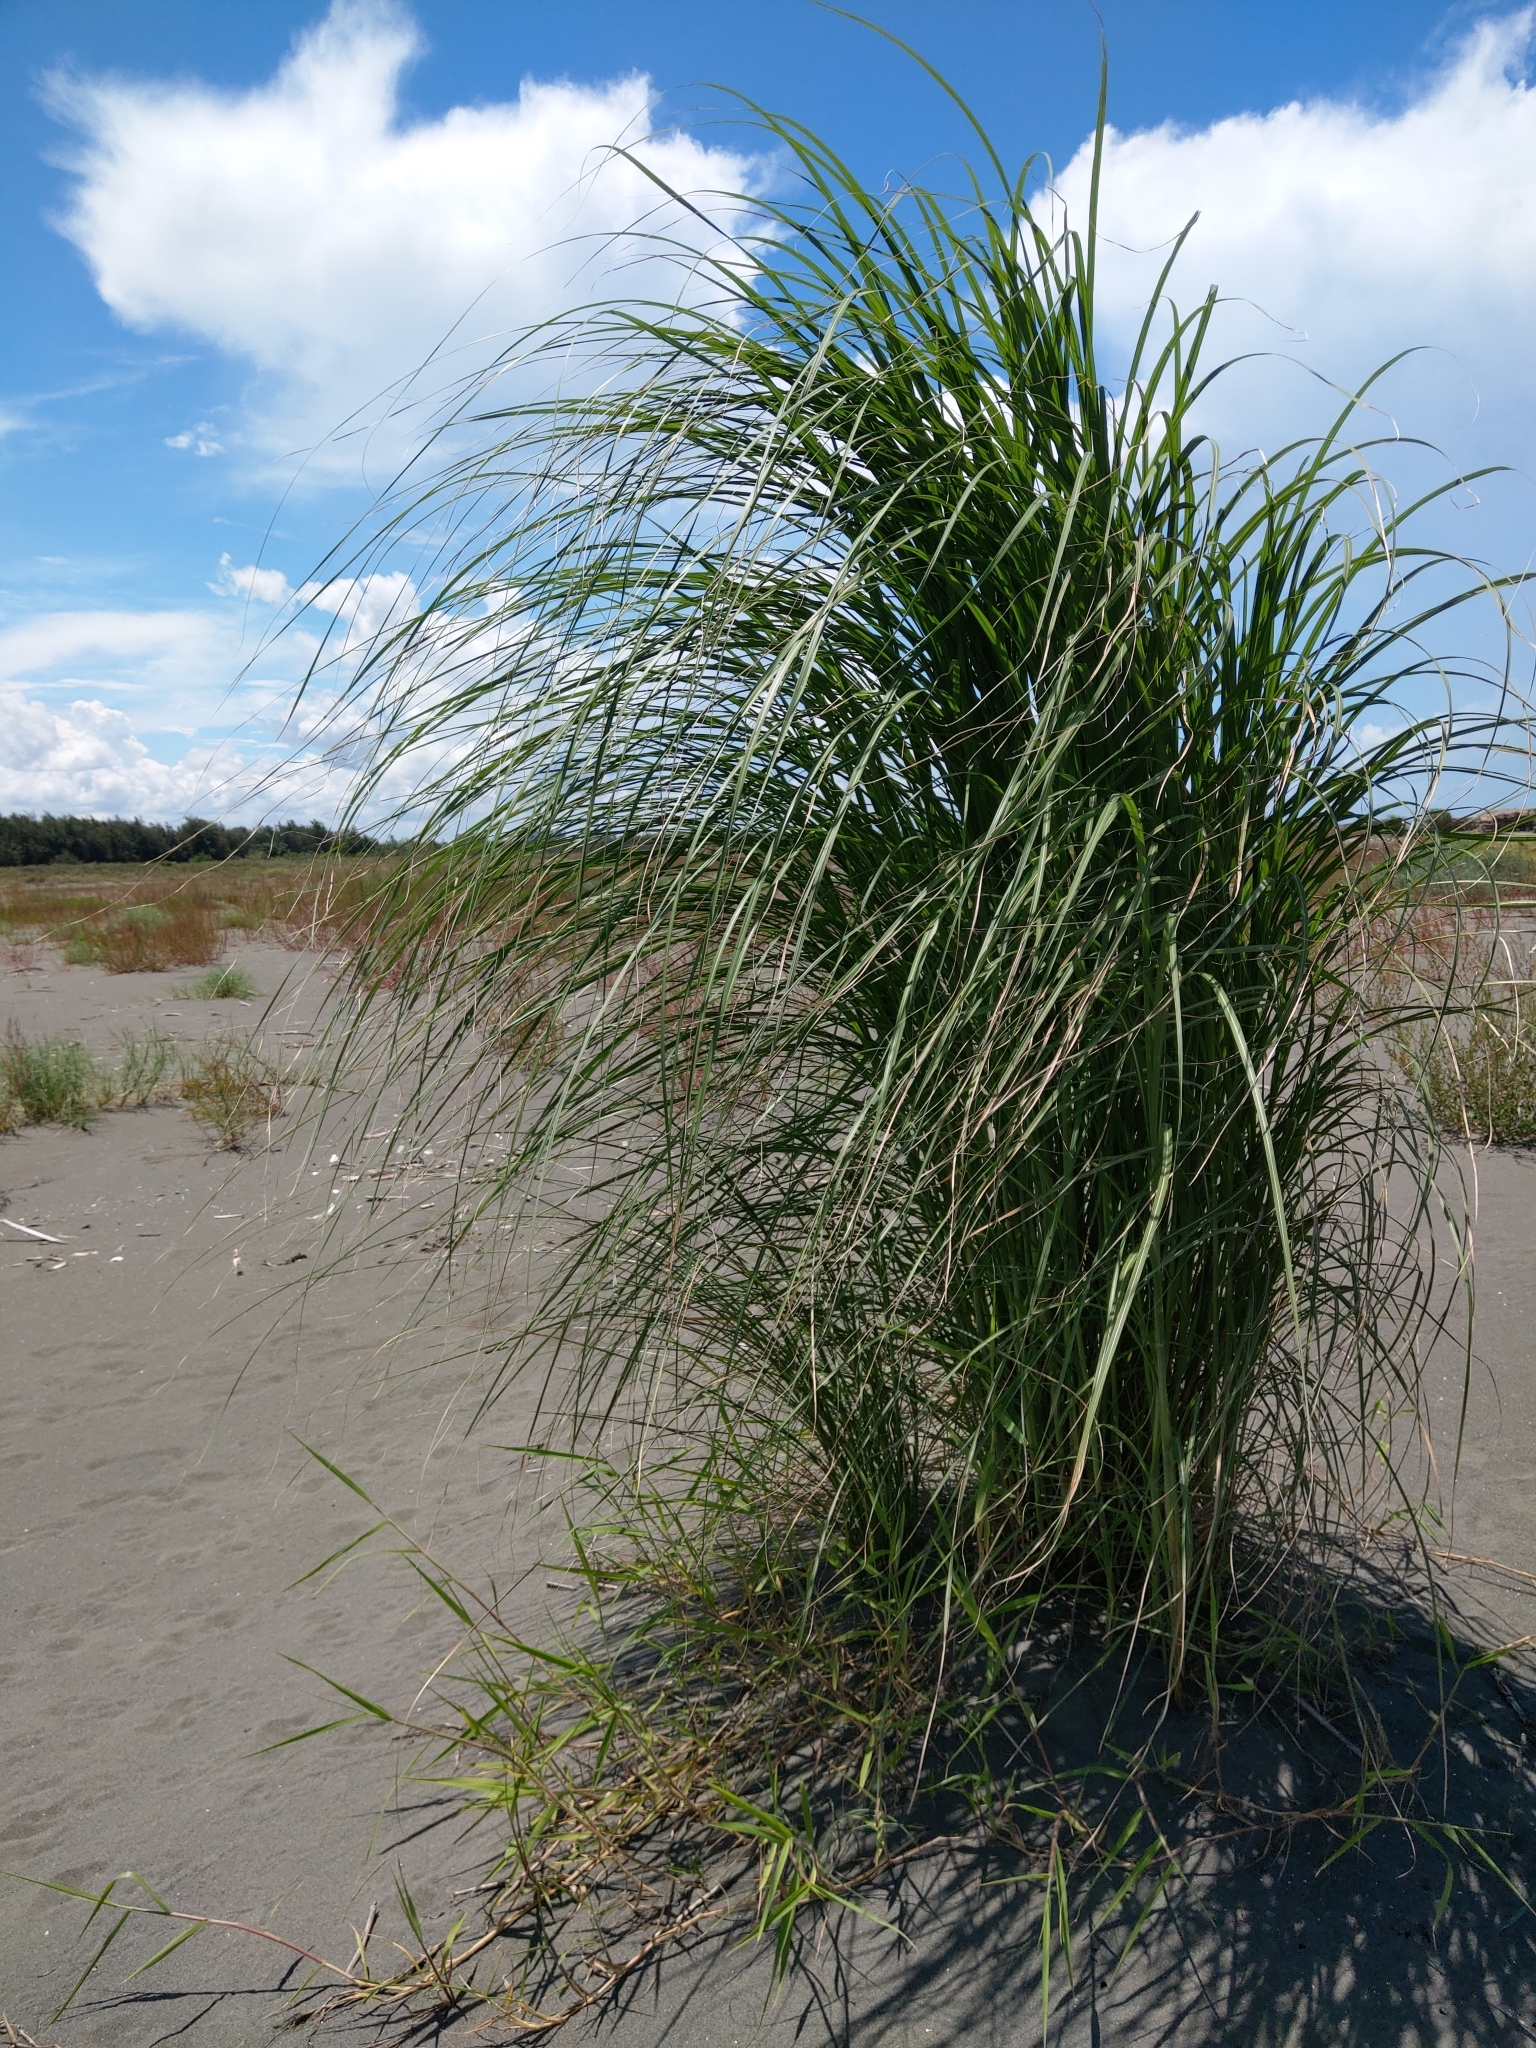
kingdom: Plantae
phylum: Tracheophyta
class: Liliopsida
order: Poales
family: Poaceae
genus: Saccharum
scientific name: Saccharum spontaneum
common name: Wild sugarcane
